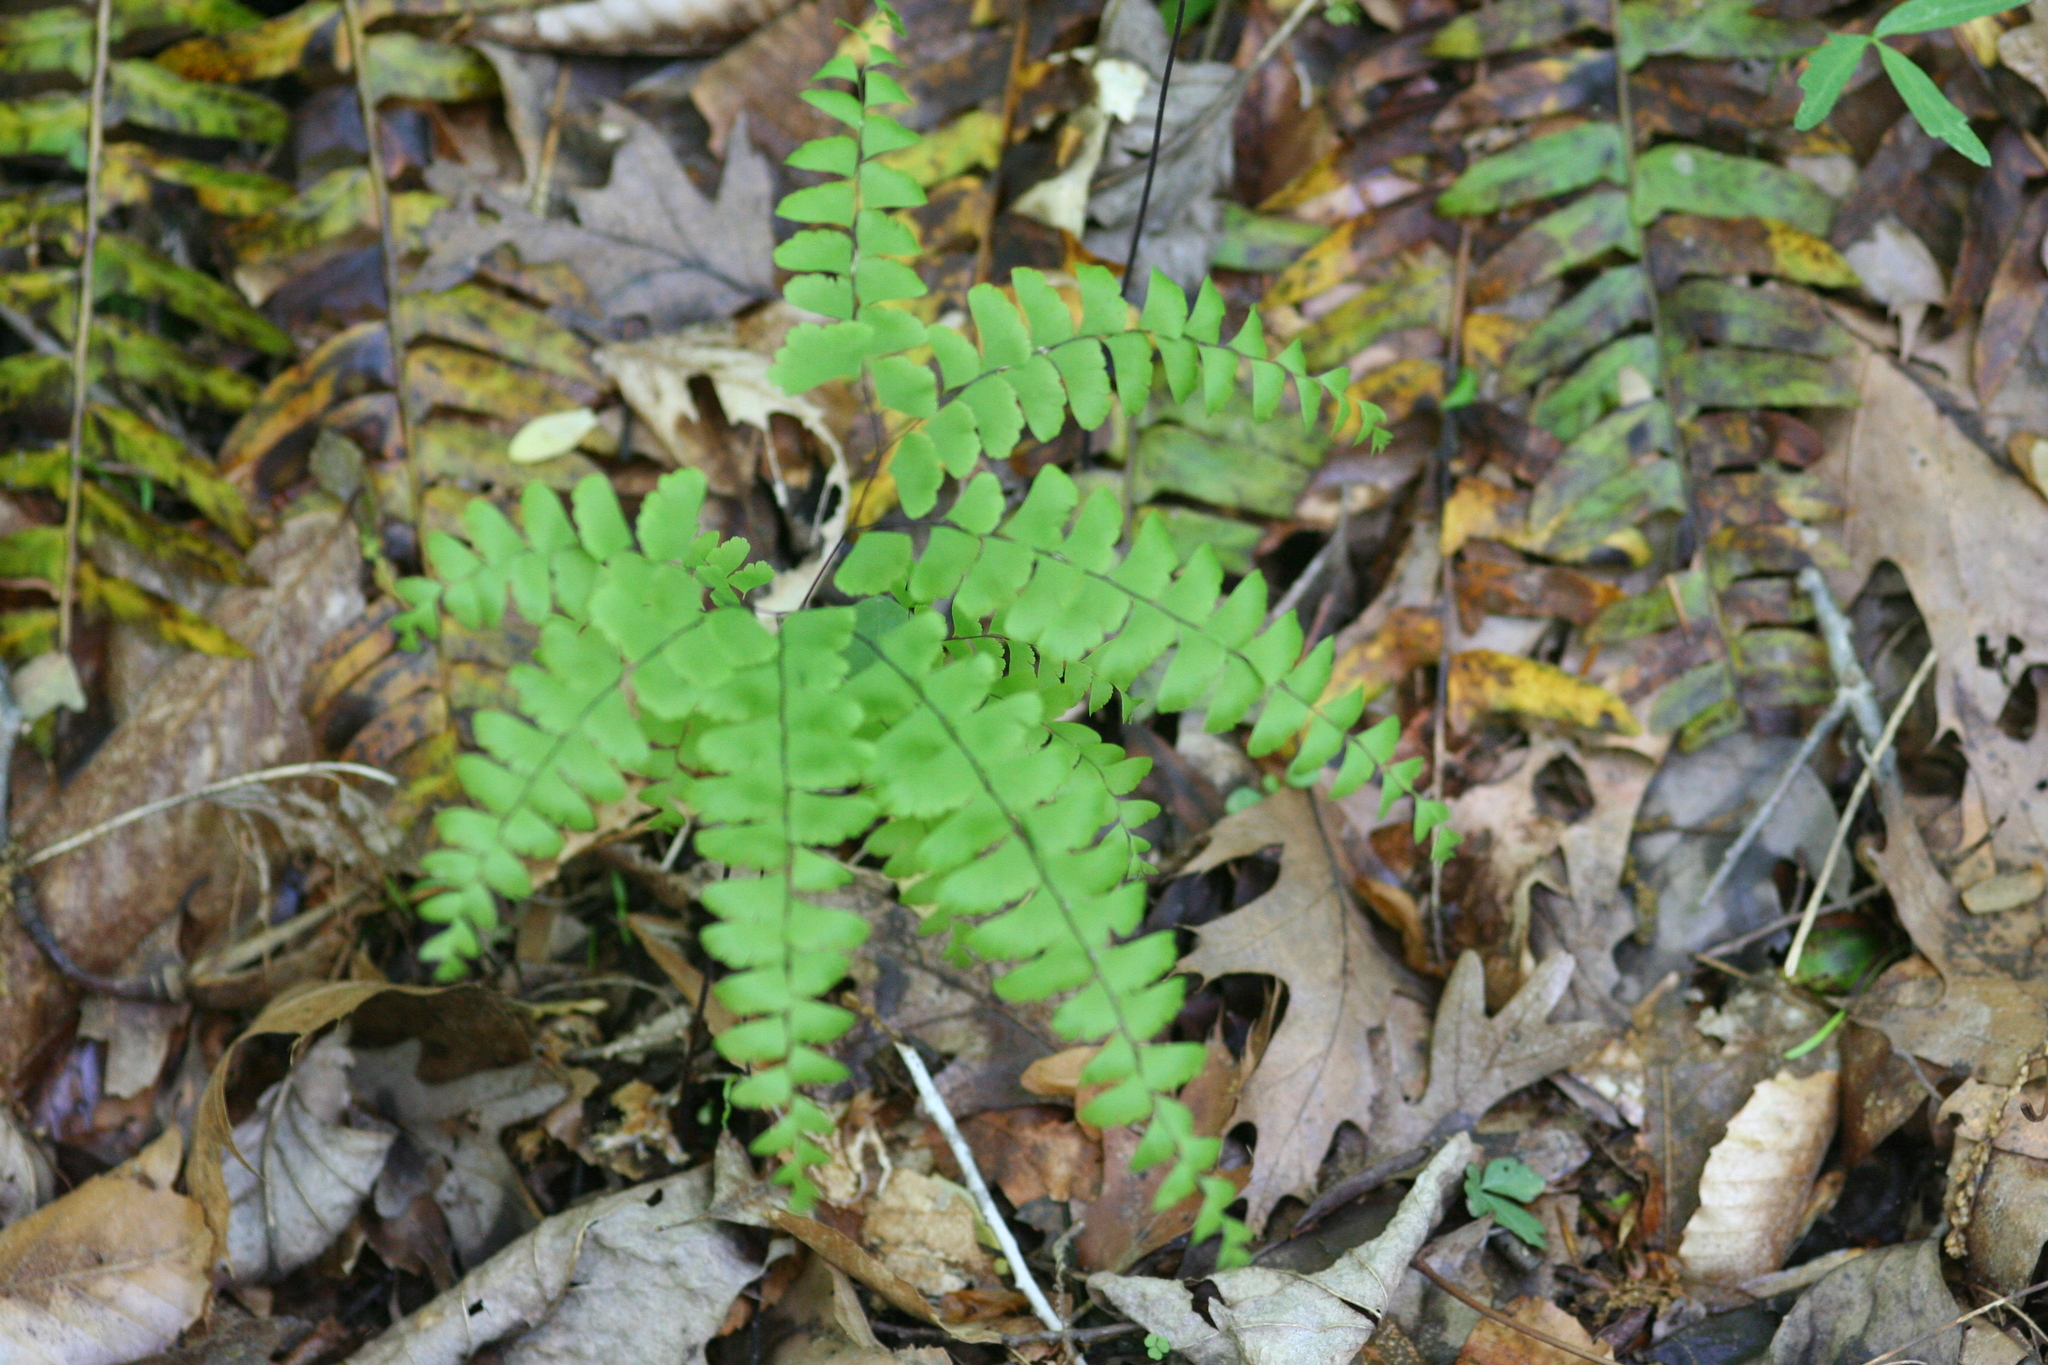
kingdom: Plantae
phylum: Tracheophyta
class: Polypodiopsida
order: Polypodiales
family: Pteridaceae
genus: Adiantum
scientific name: Adiantum pedatum
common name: Five-finger fern
